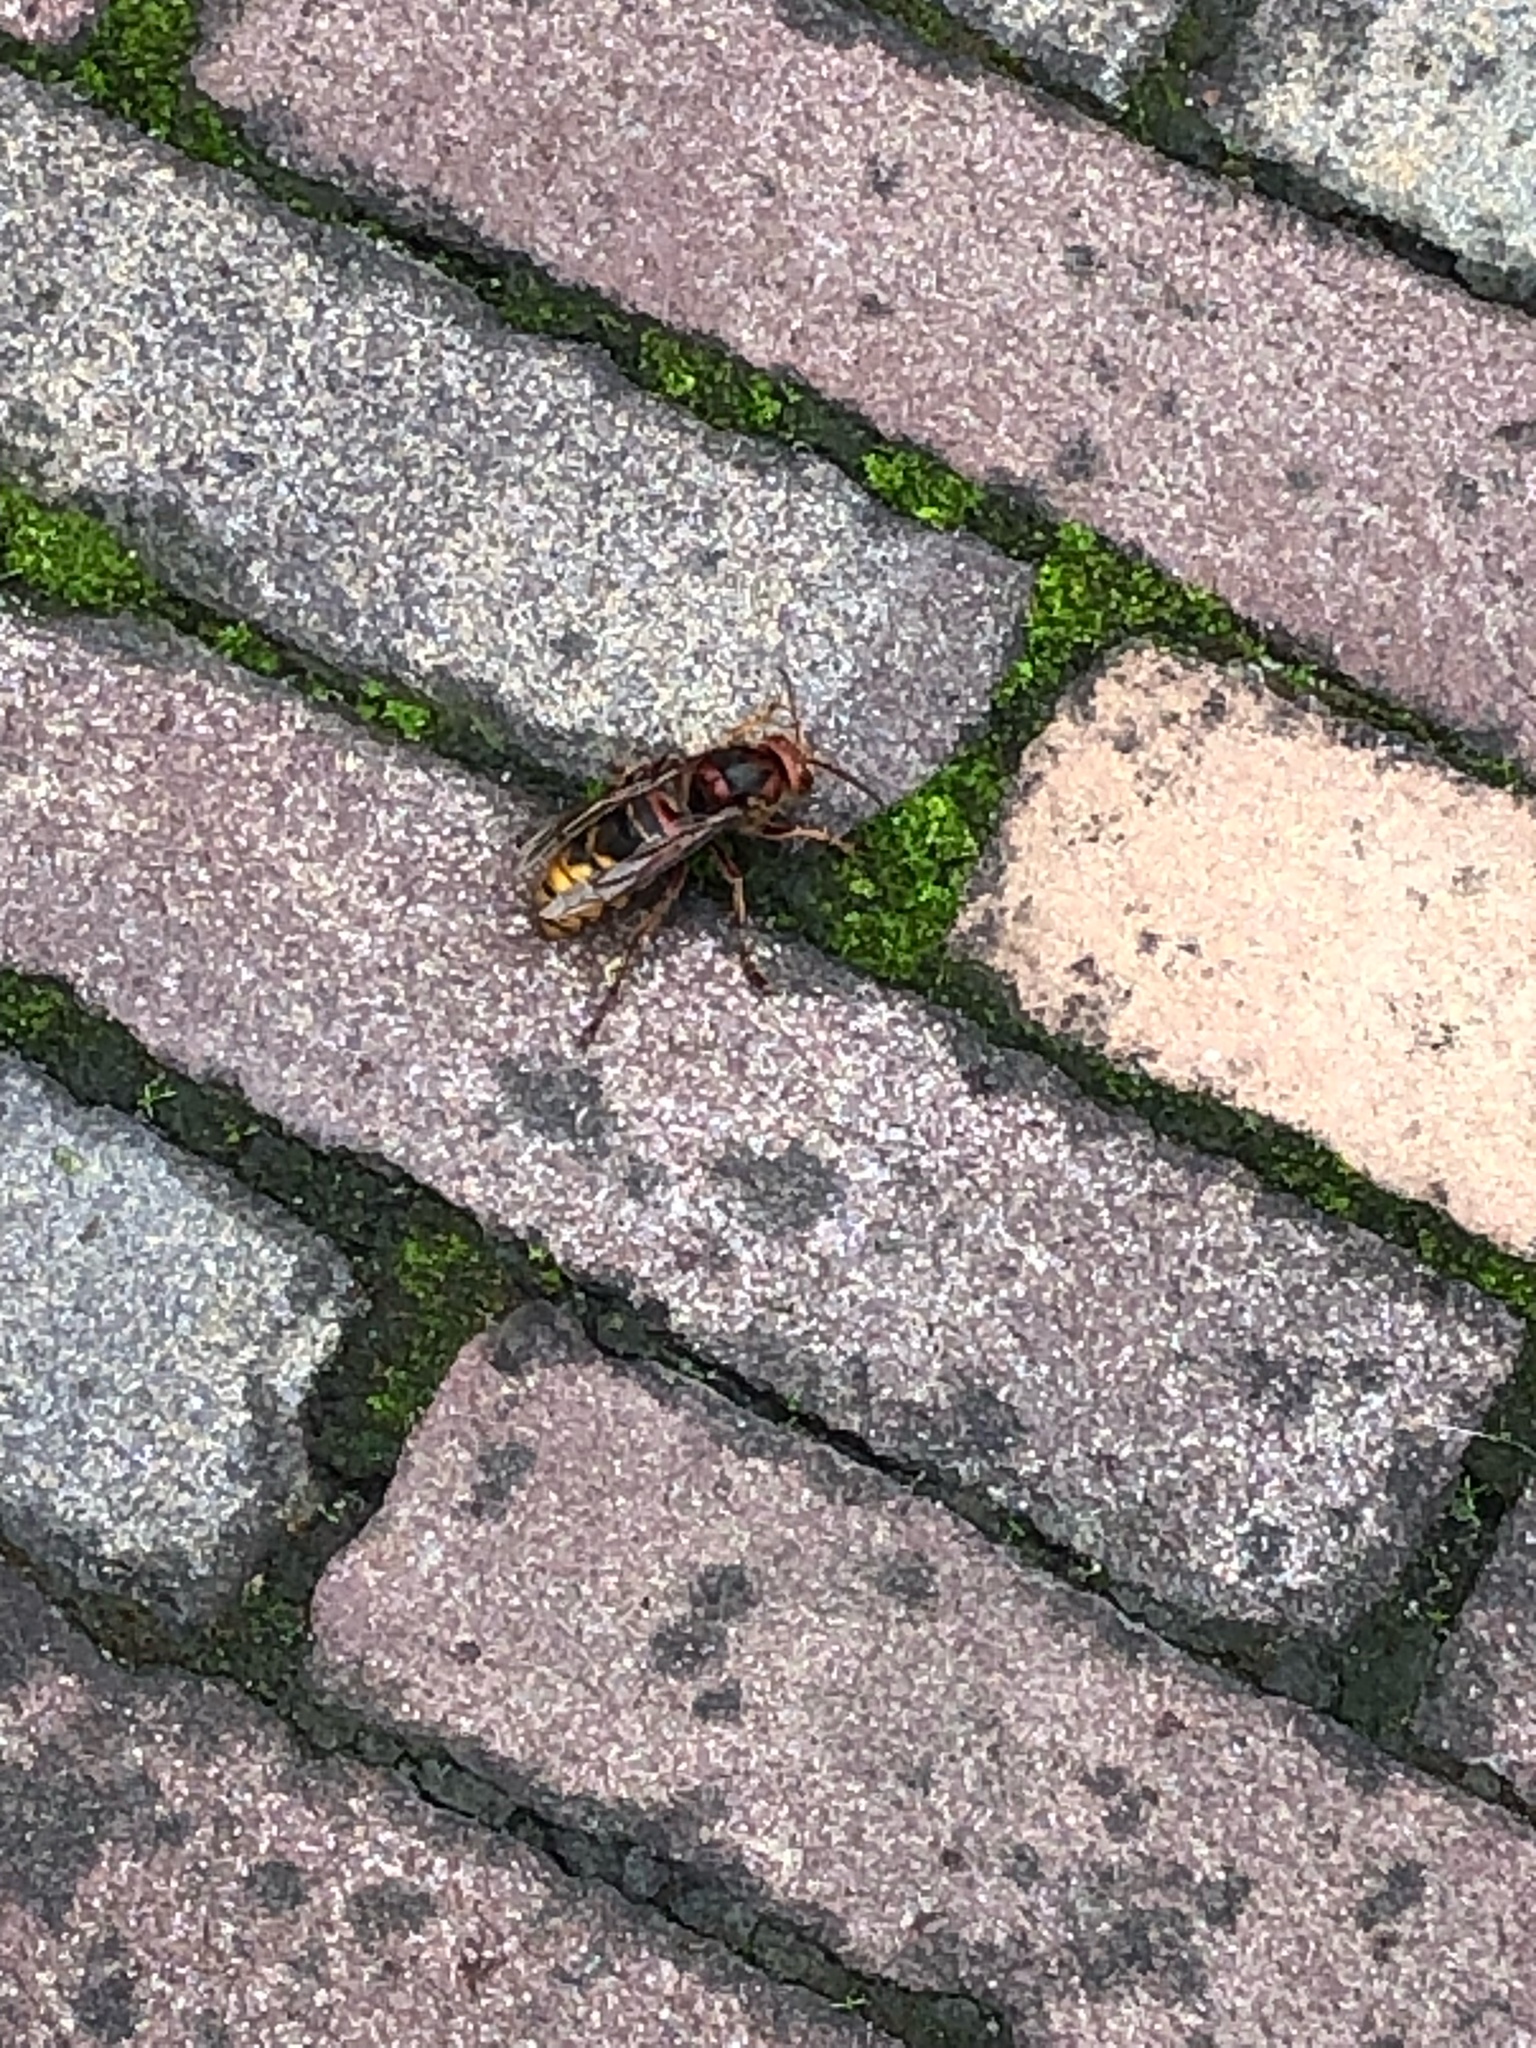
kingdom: Animalia
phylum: Arthropoda
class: Insecta
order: Hymenoptera
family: Vespidae
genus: Vespa
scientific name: Vespa crabro
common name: Hornet
